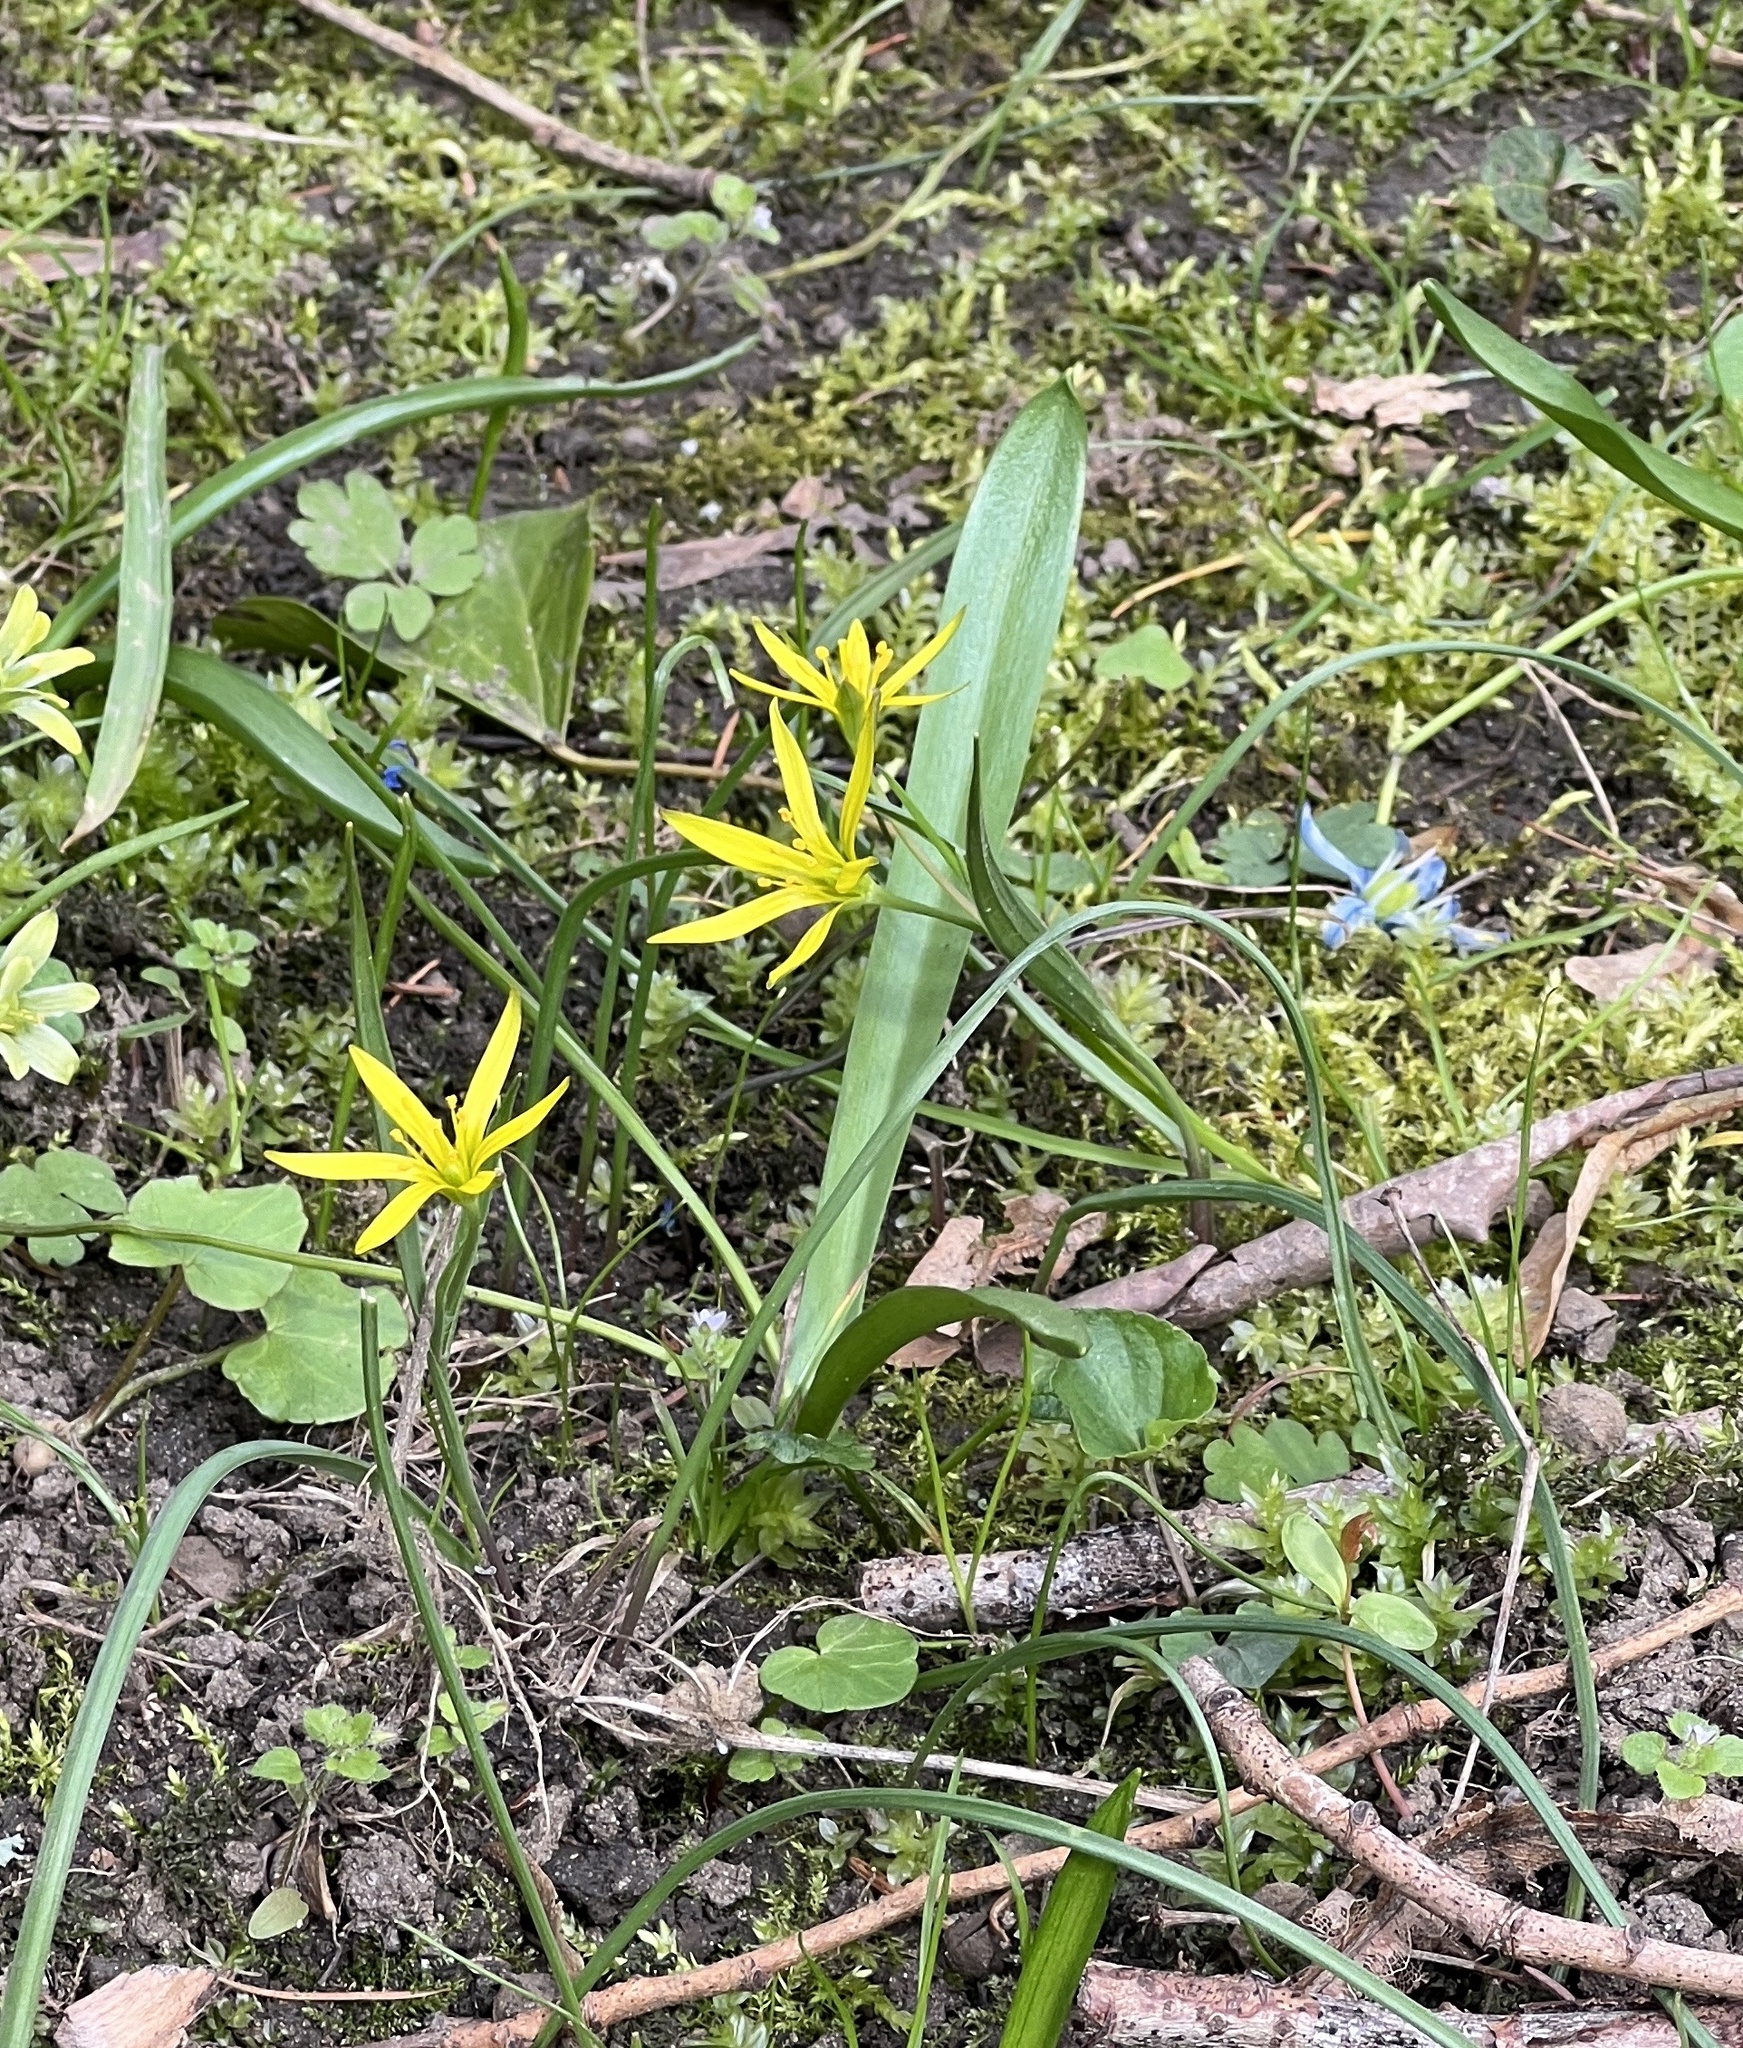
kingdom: Plantae
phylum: Tracheophyta
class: Liliopsida
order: Liliales
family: Liliaceae
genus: Gagea
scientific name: Gagea pratensis
